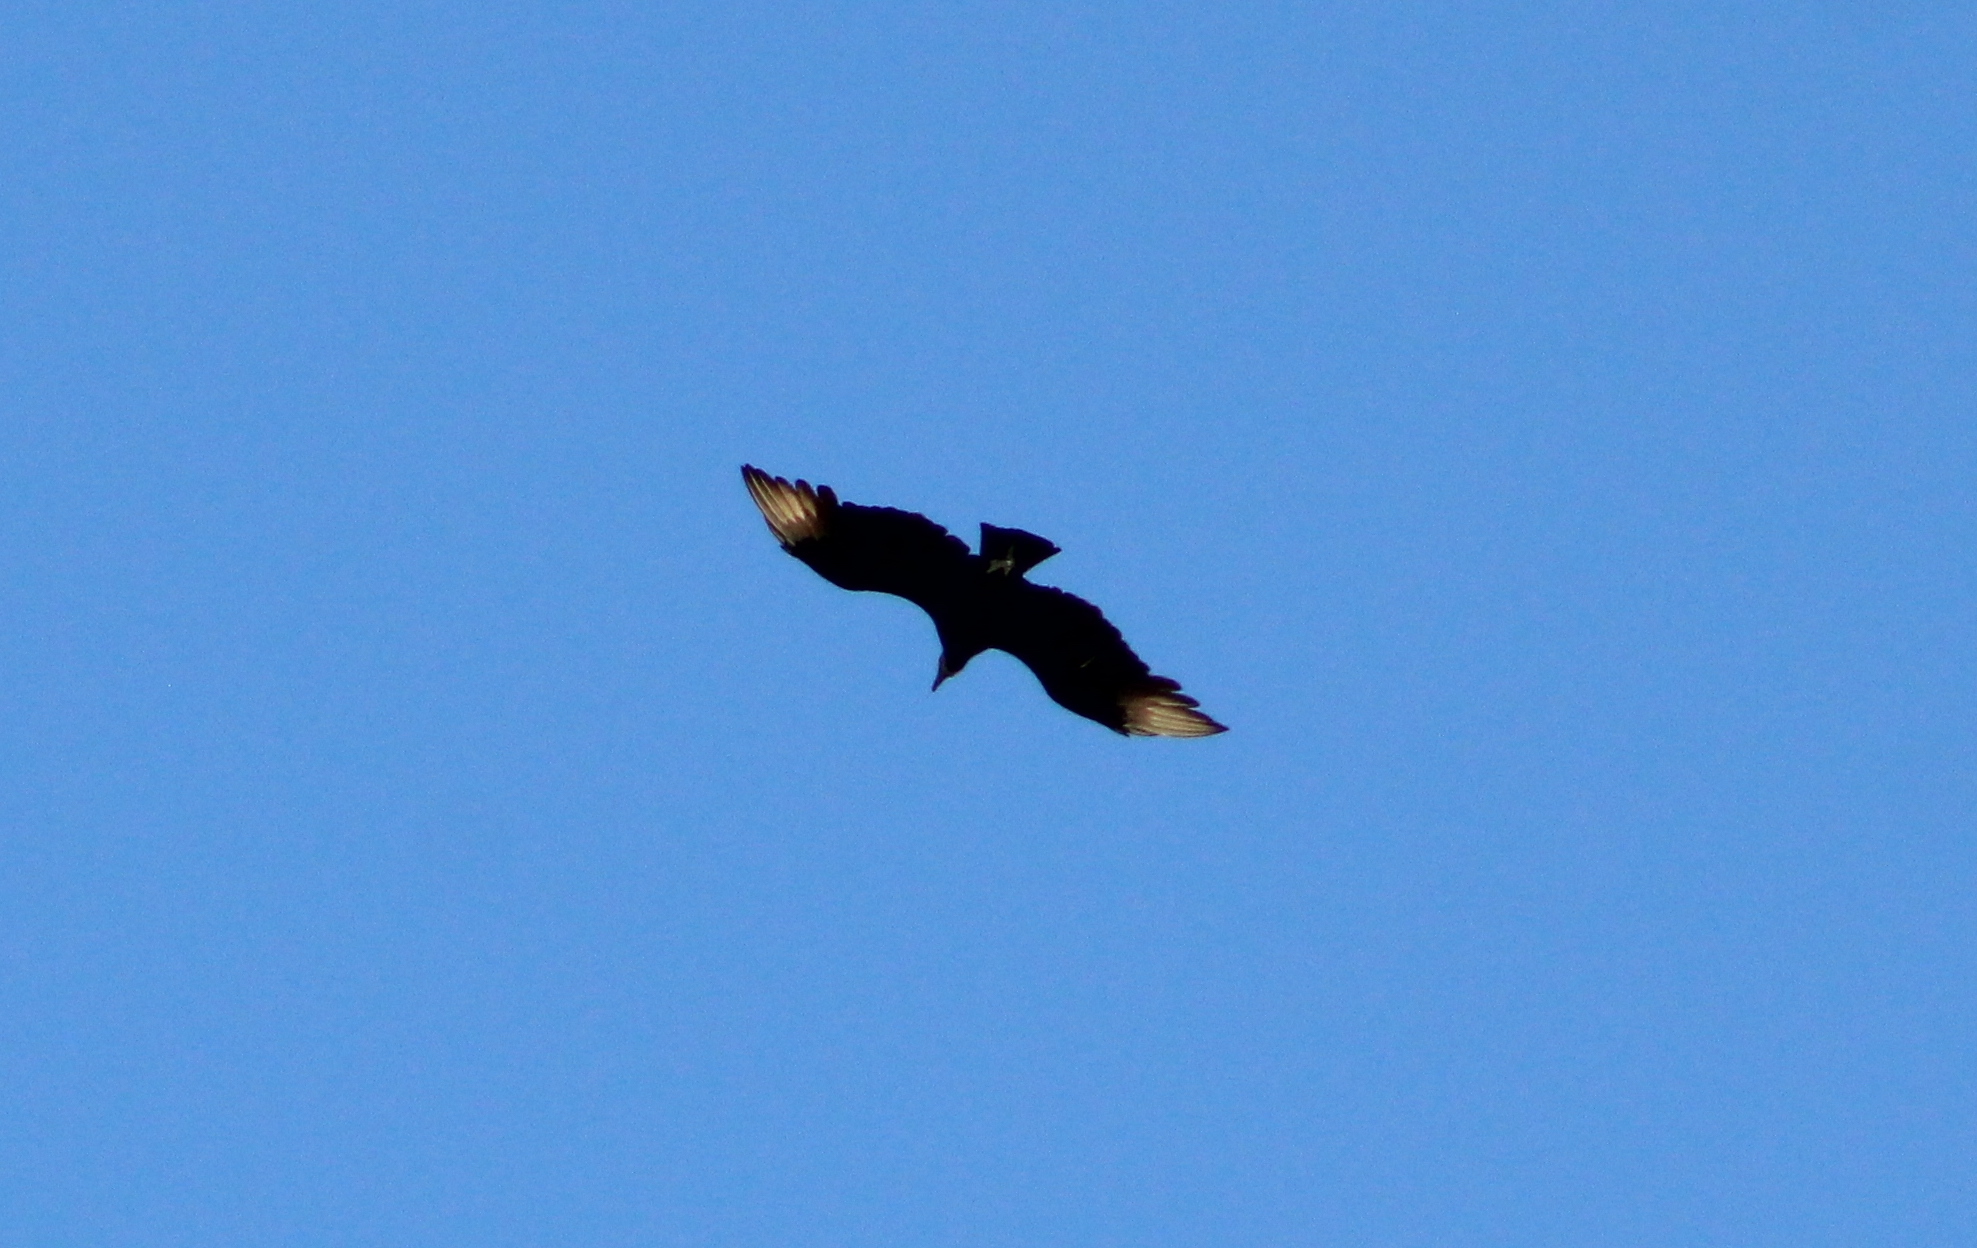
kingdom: Animalia
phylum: Chordata
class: Aves
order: Accipitriformes
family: Cathartidae
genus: Coragyps
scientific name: Coragyps atratus
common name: Black vulture
